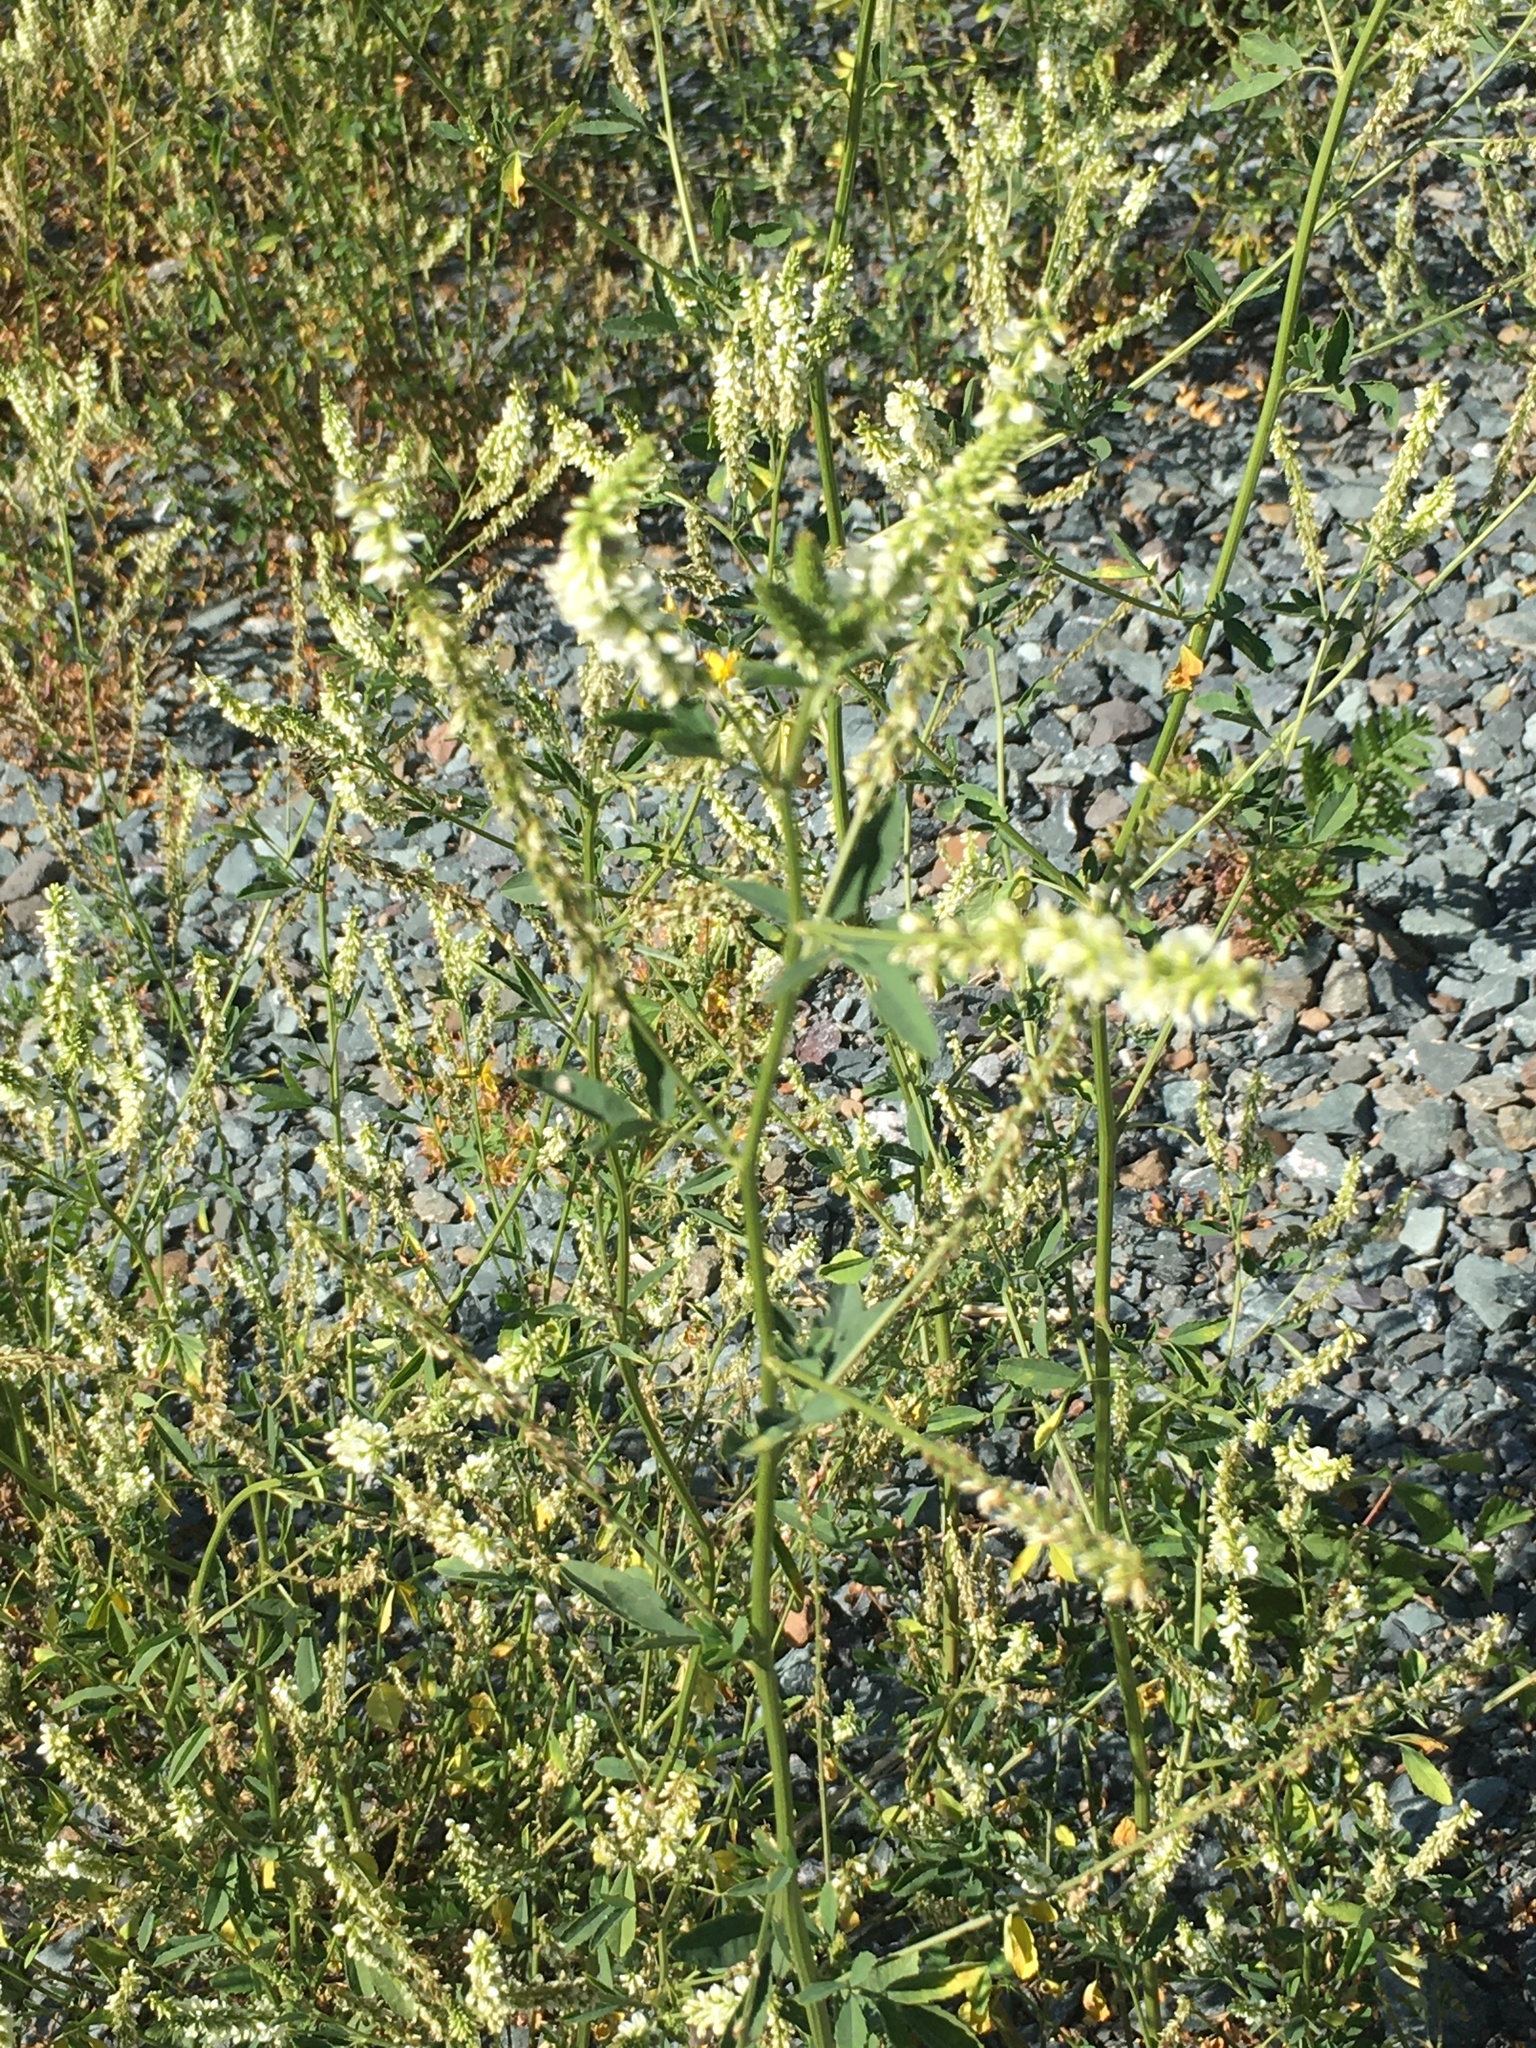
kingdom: Plantae
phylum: Tracheophyta
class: Magnoliopsida
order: Fabales
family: Fabaceae
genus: Melilotus
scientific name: Melilotus albus
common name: White melilot
